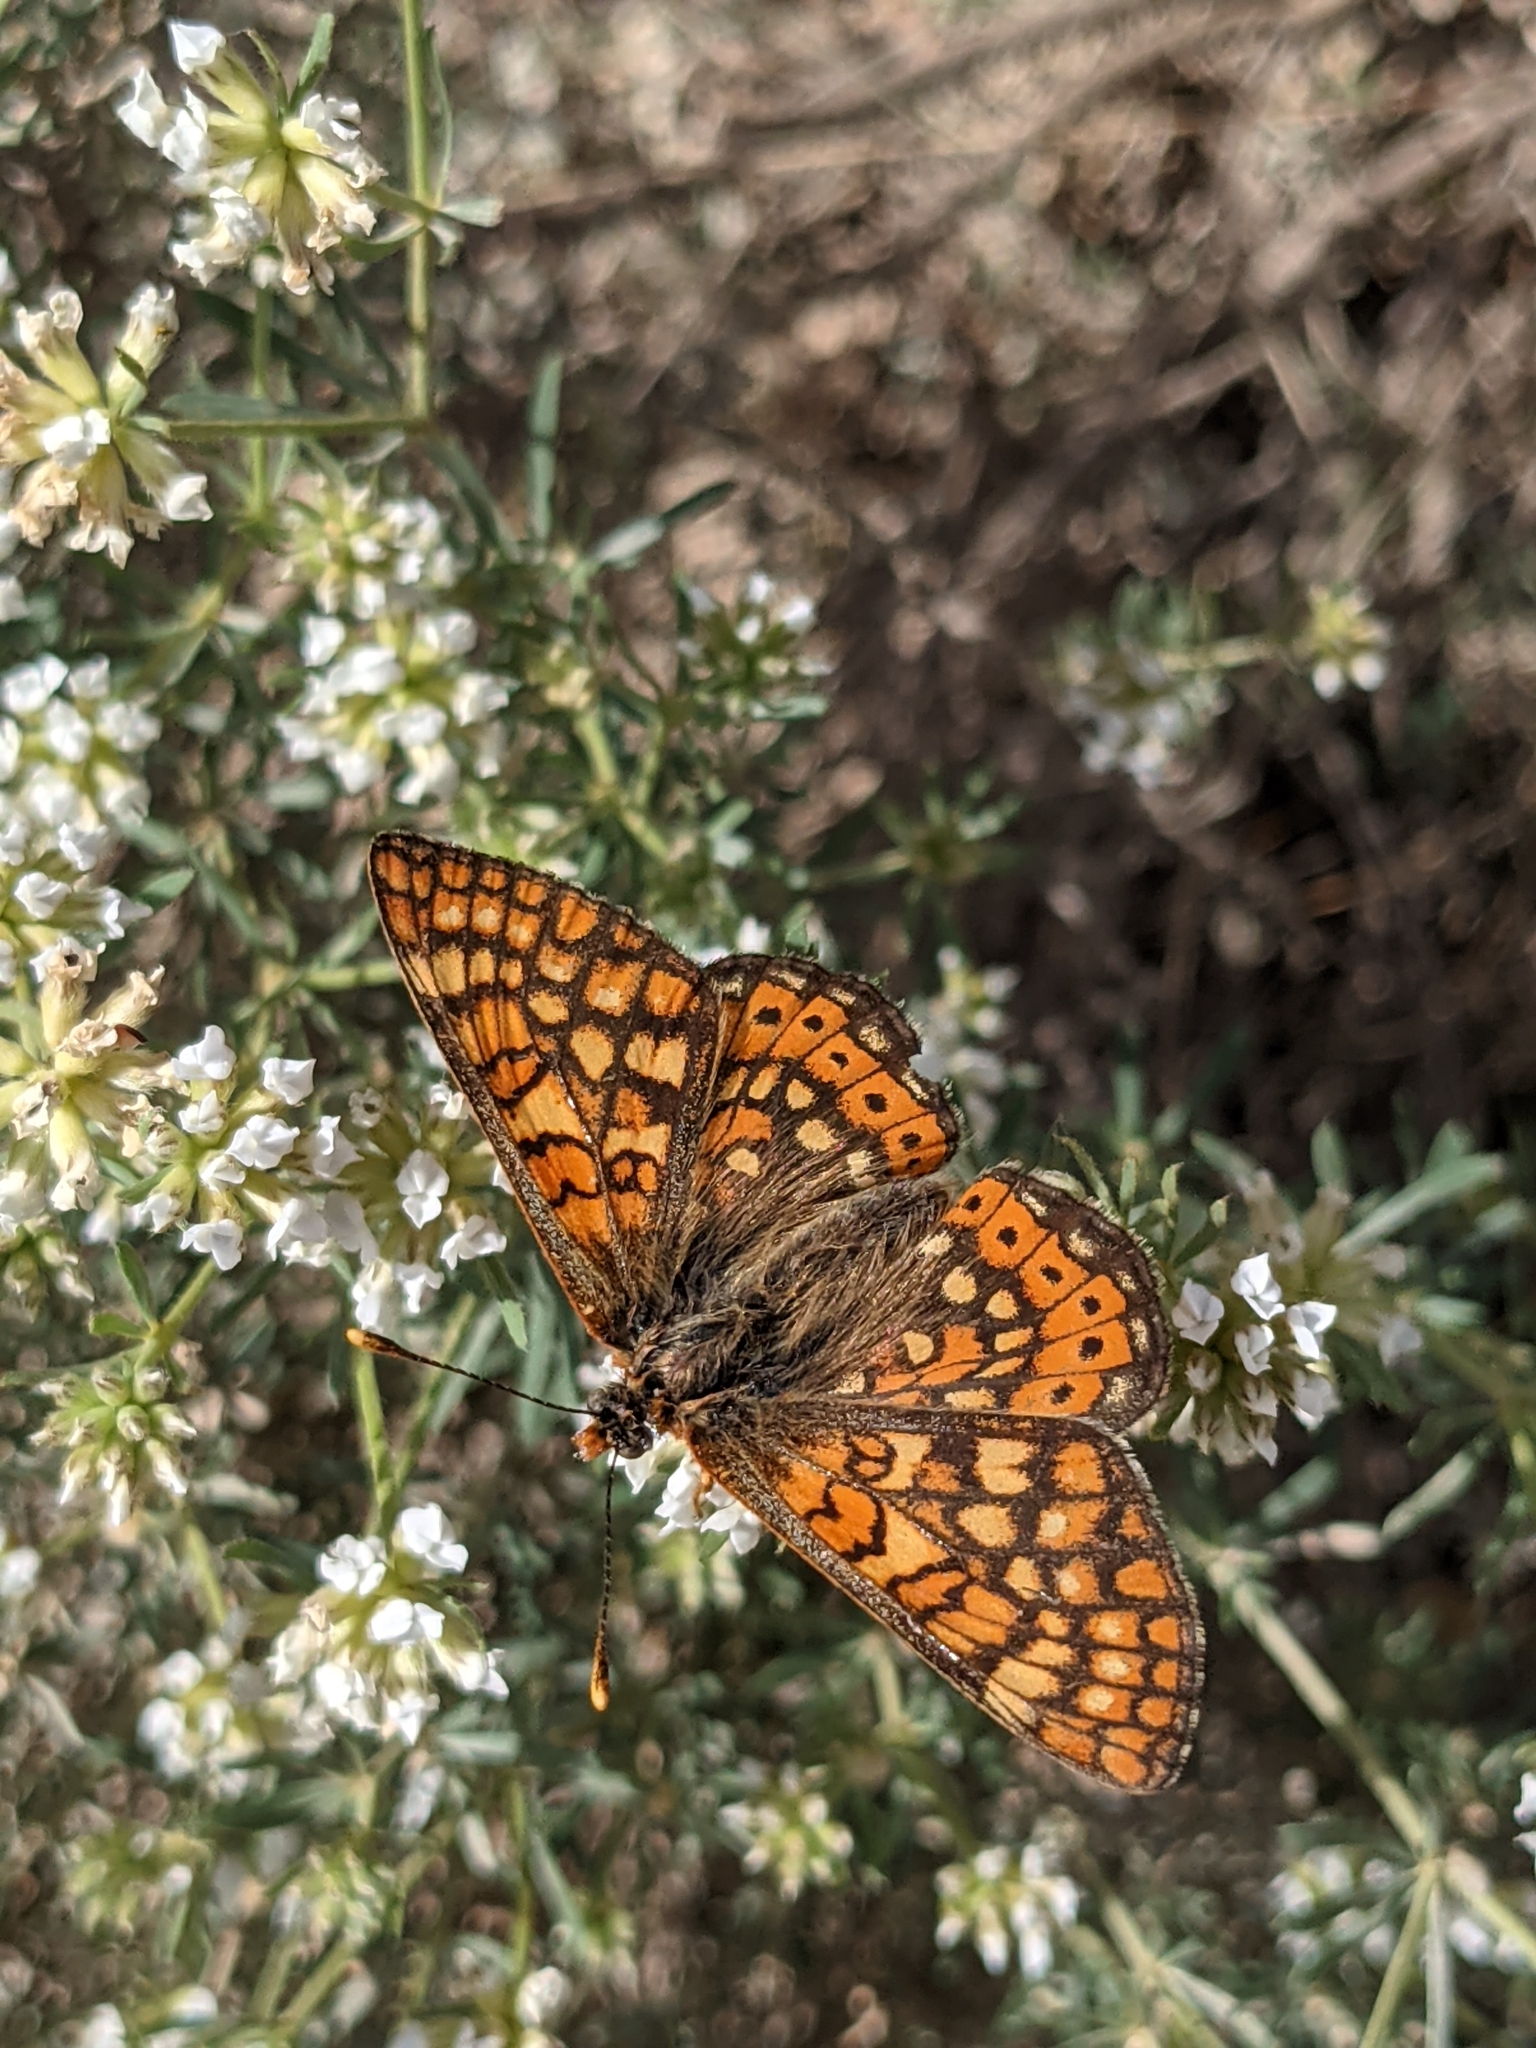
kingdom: Animalia
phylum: Arthropoda
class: Insecta
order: Lepidoptera
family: Nymphalidae
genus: Euphydryas
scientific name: Euphydryas aurinia
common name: Marsh fritillary
